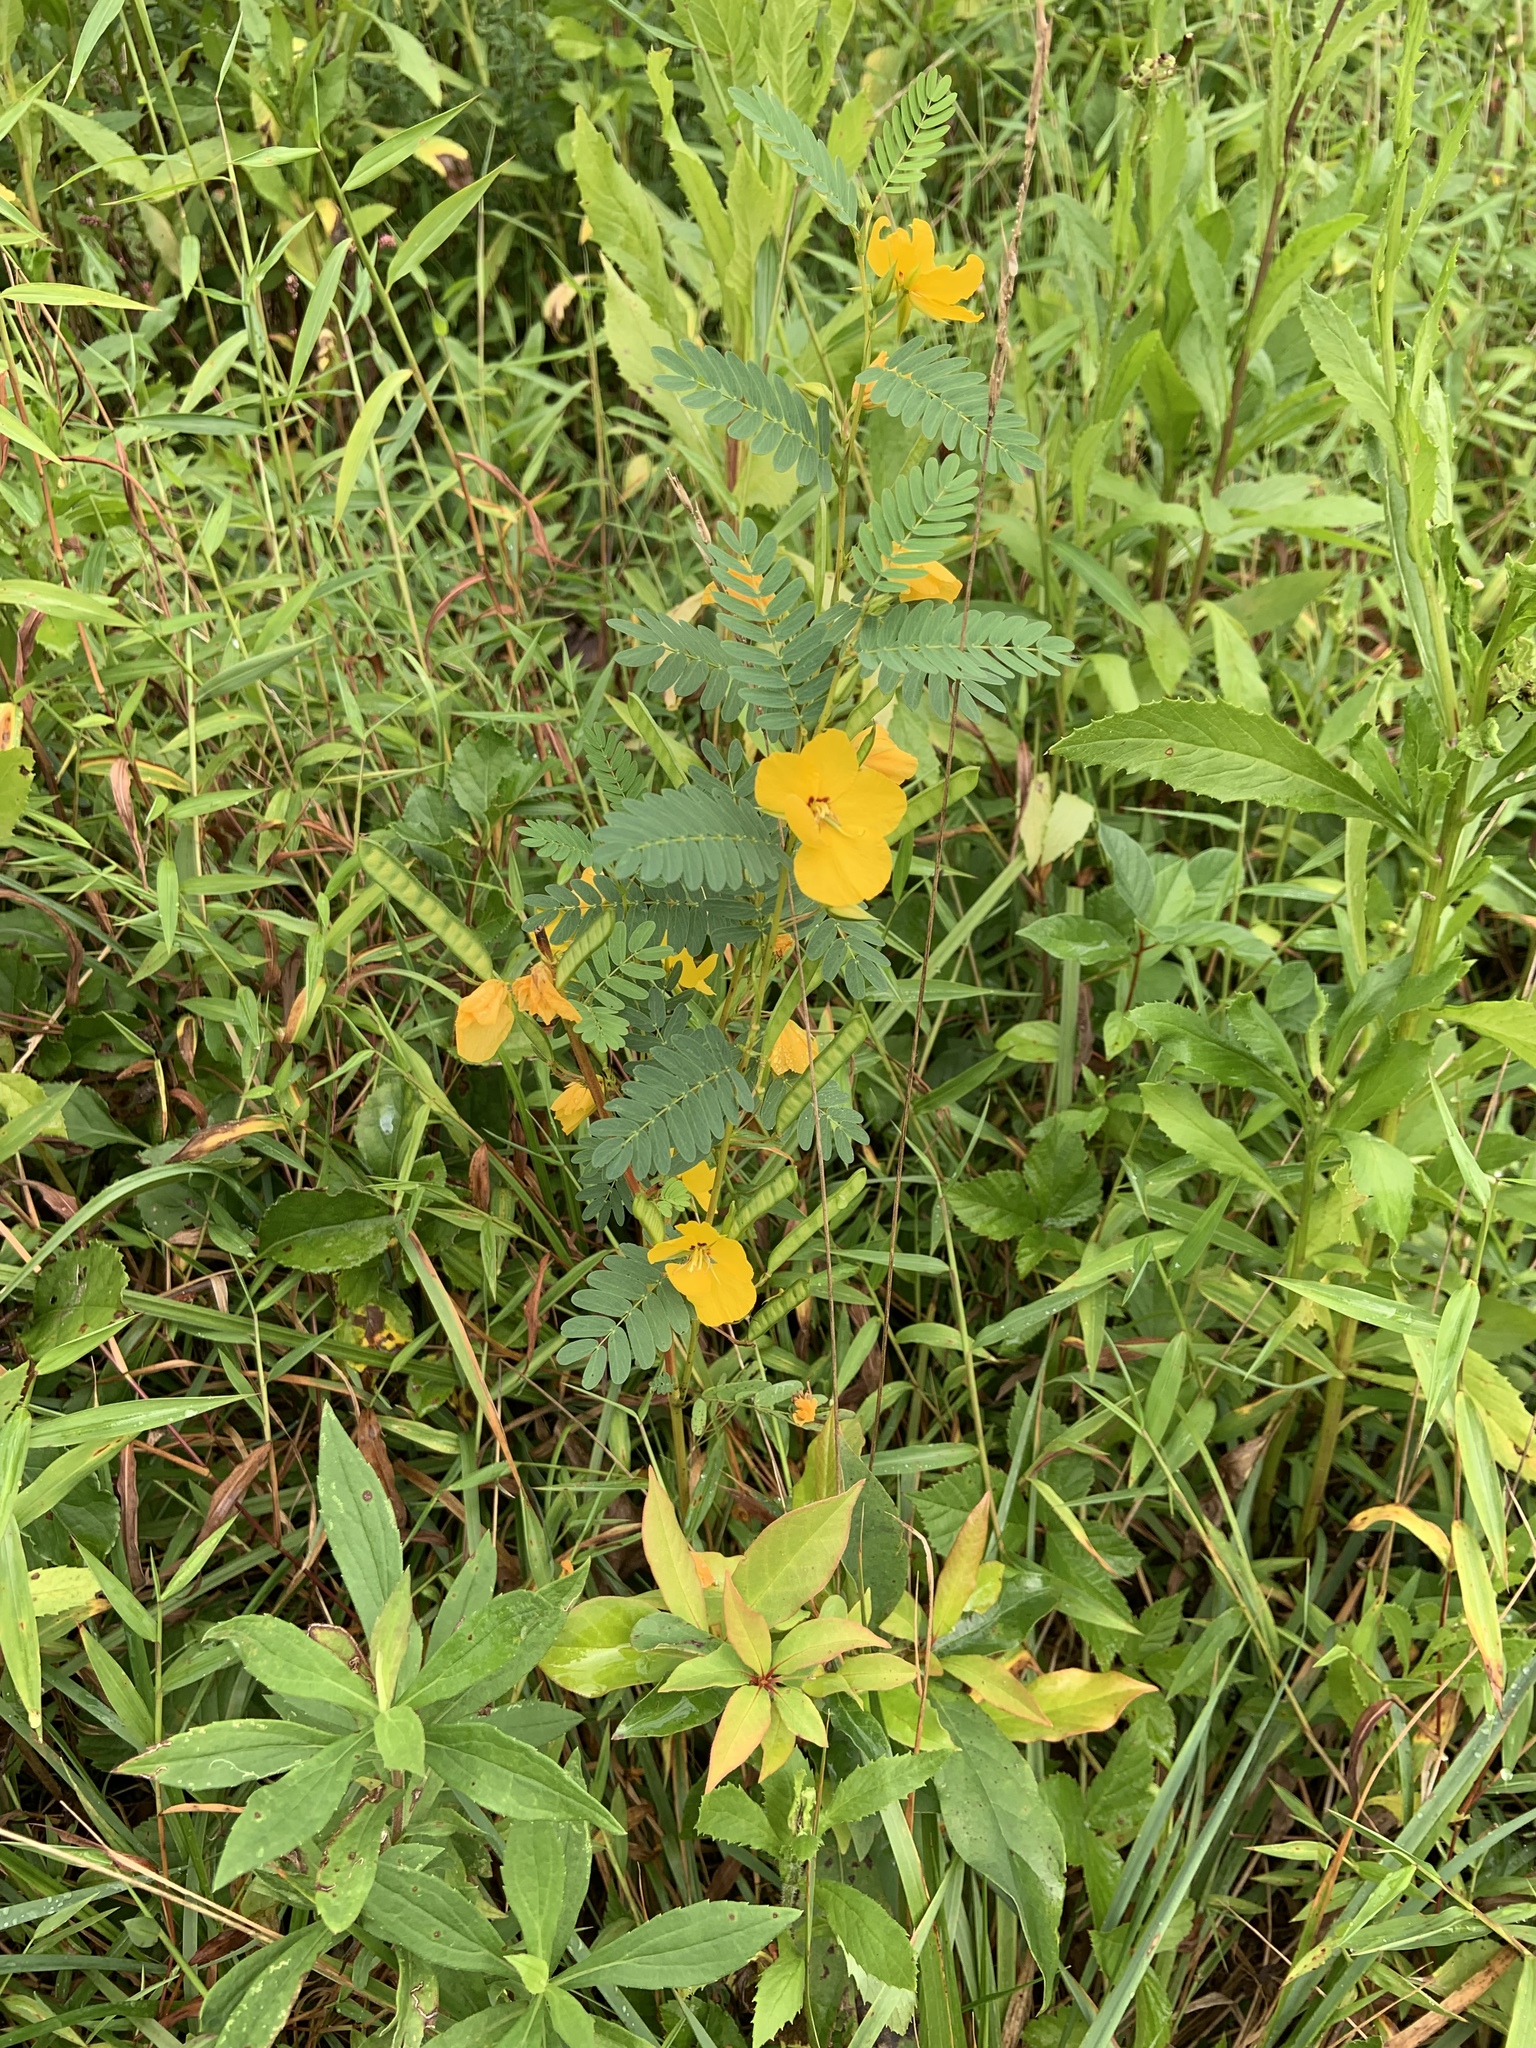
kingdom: Plantae
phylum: Tracheophyta
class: Magnoliopsida
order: Fabales
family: Fabaceae
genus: Chamaecrista
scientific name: Chamaecrista fasciculata
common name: Golden cassia
